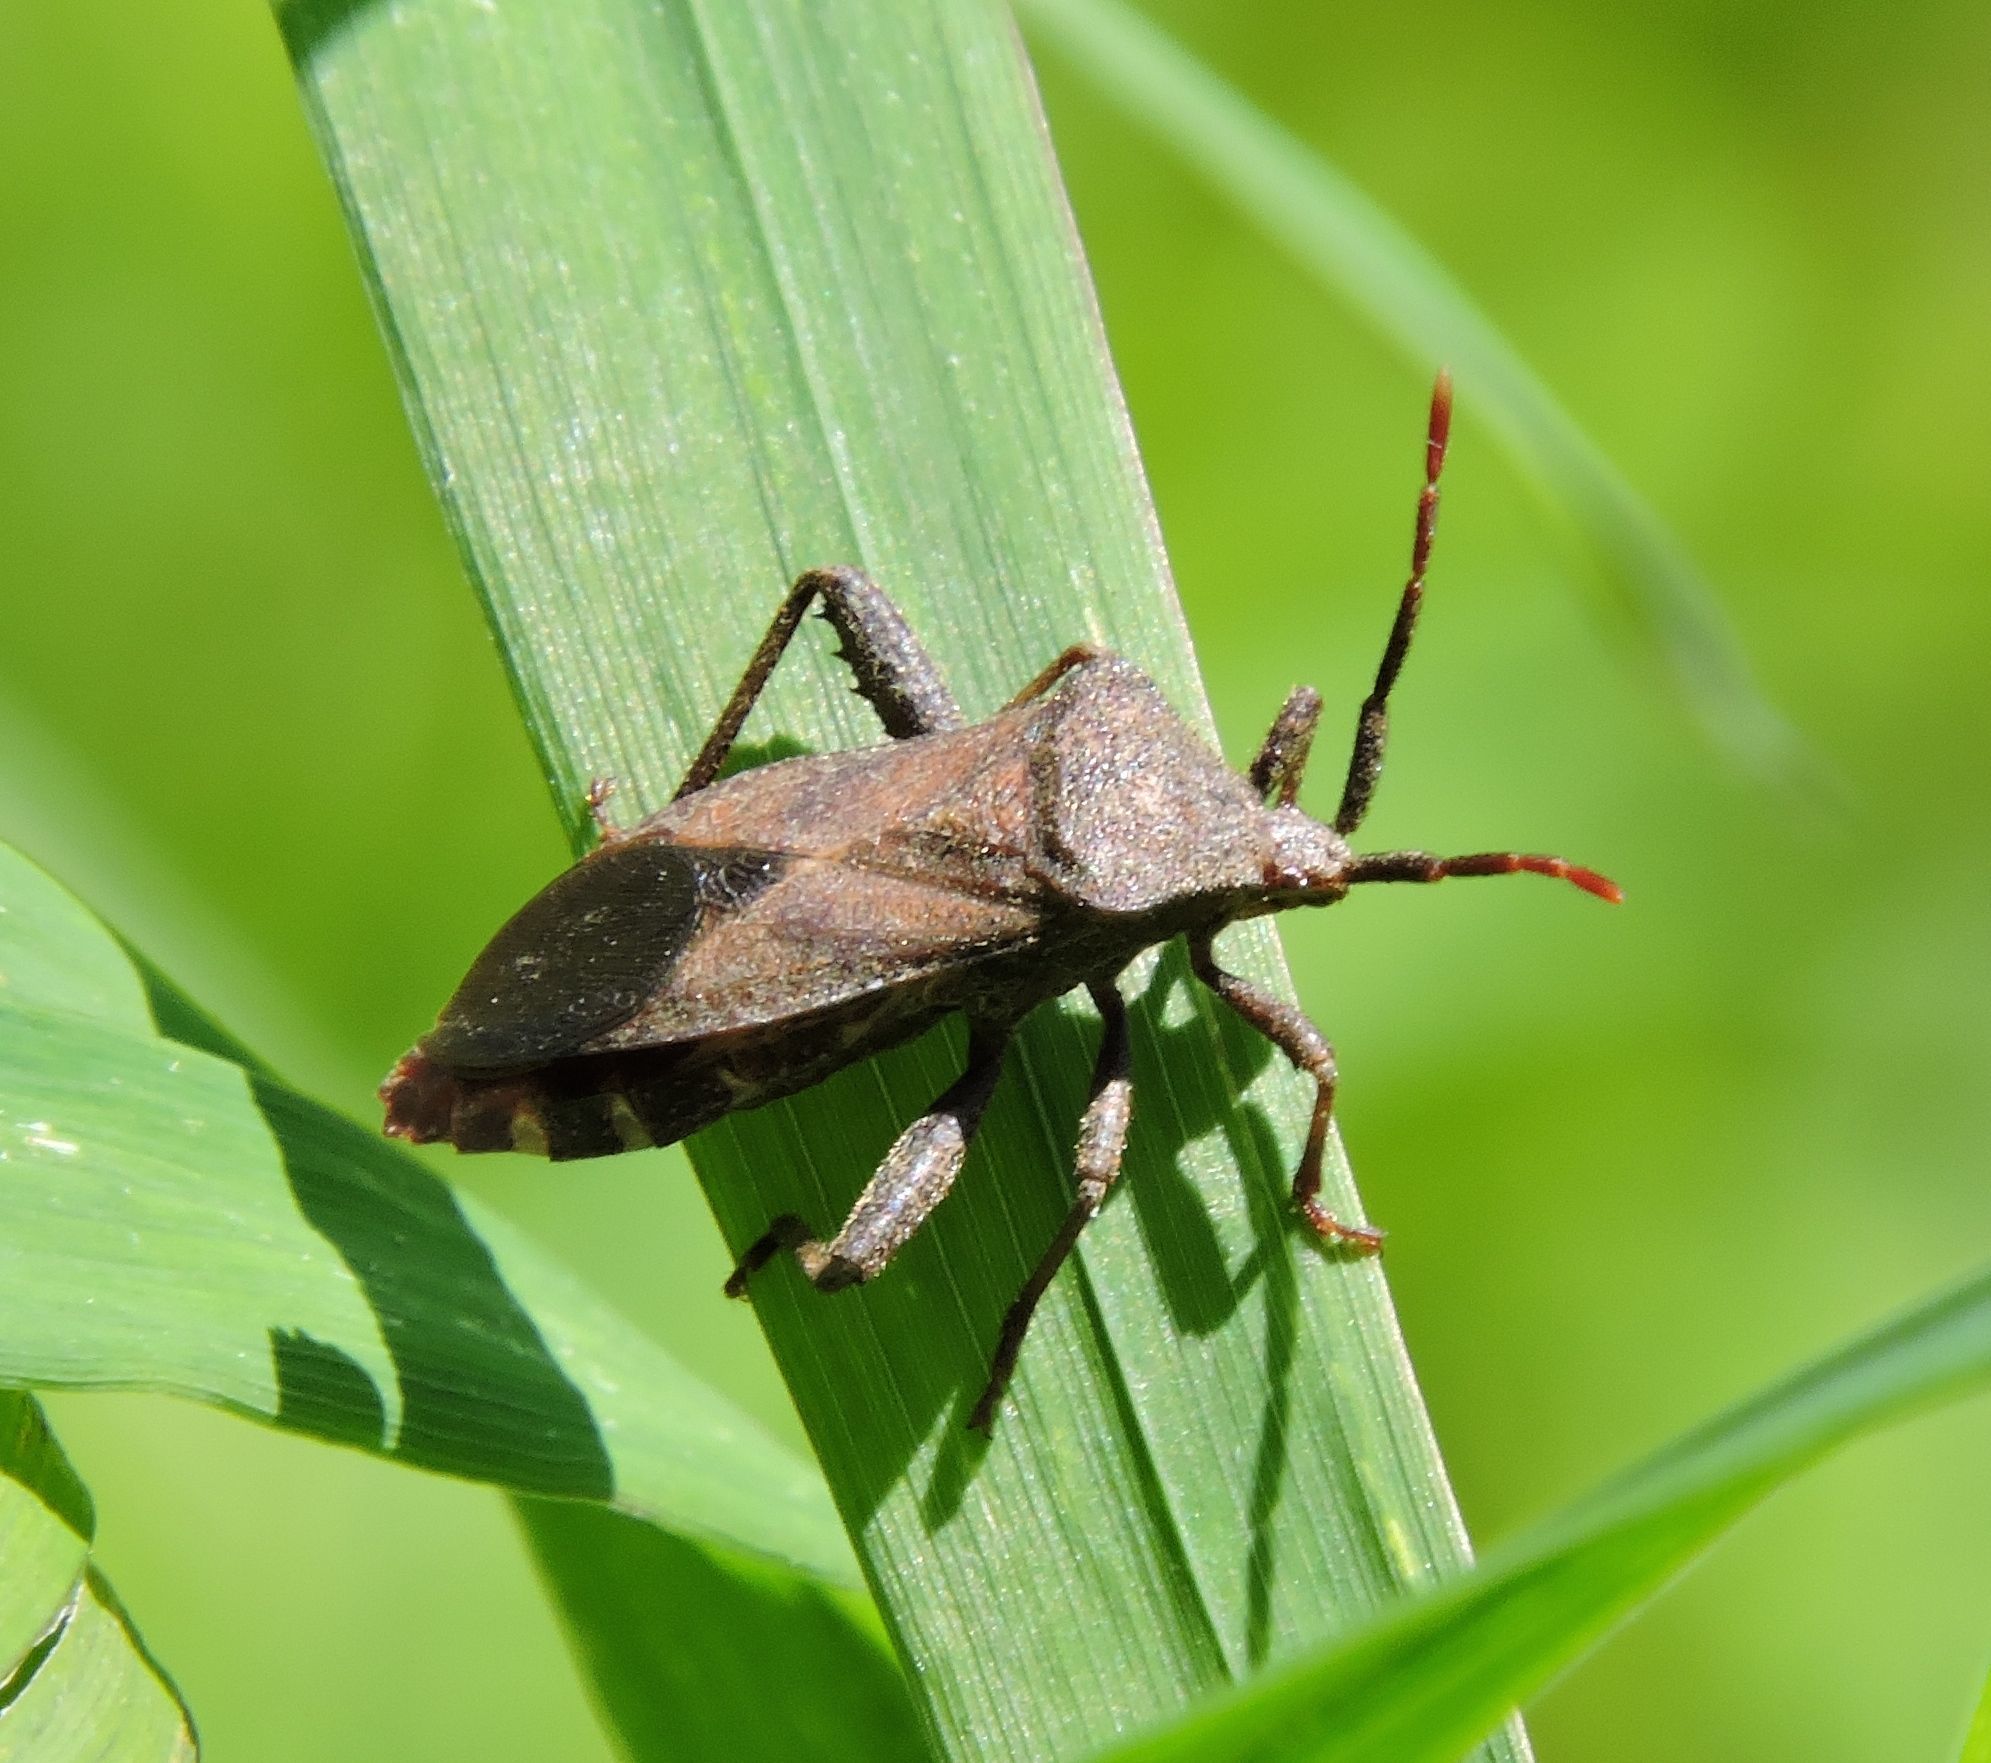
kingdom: Animalia
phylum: Arthropoda
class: Insecta
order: Hemiptera
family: Coreidae
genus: Piezogaster
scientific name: Piezogaster calcarator
